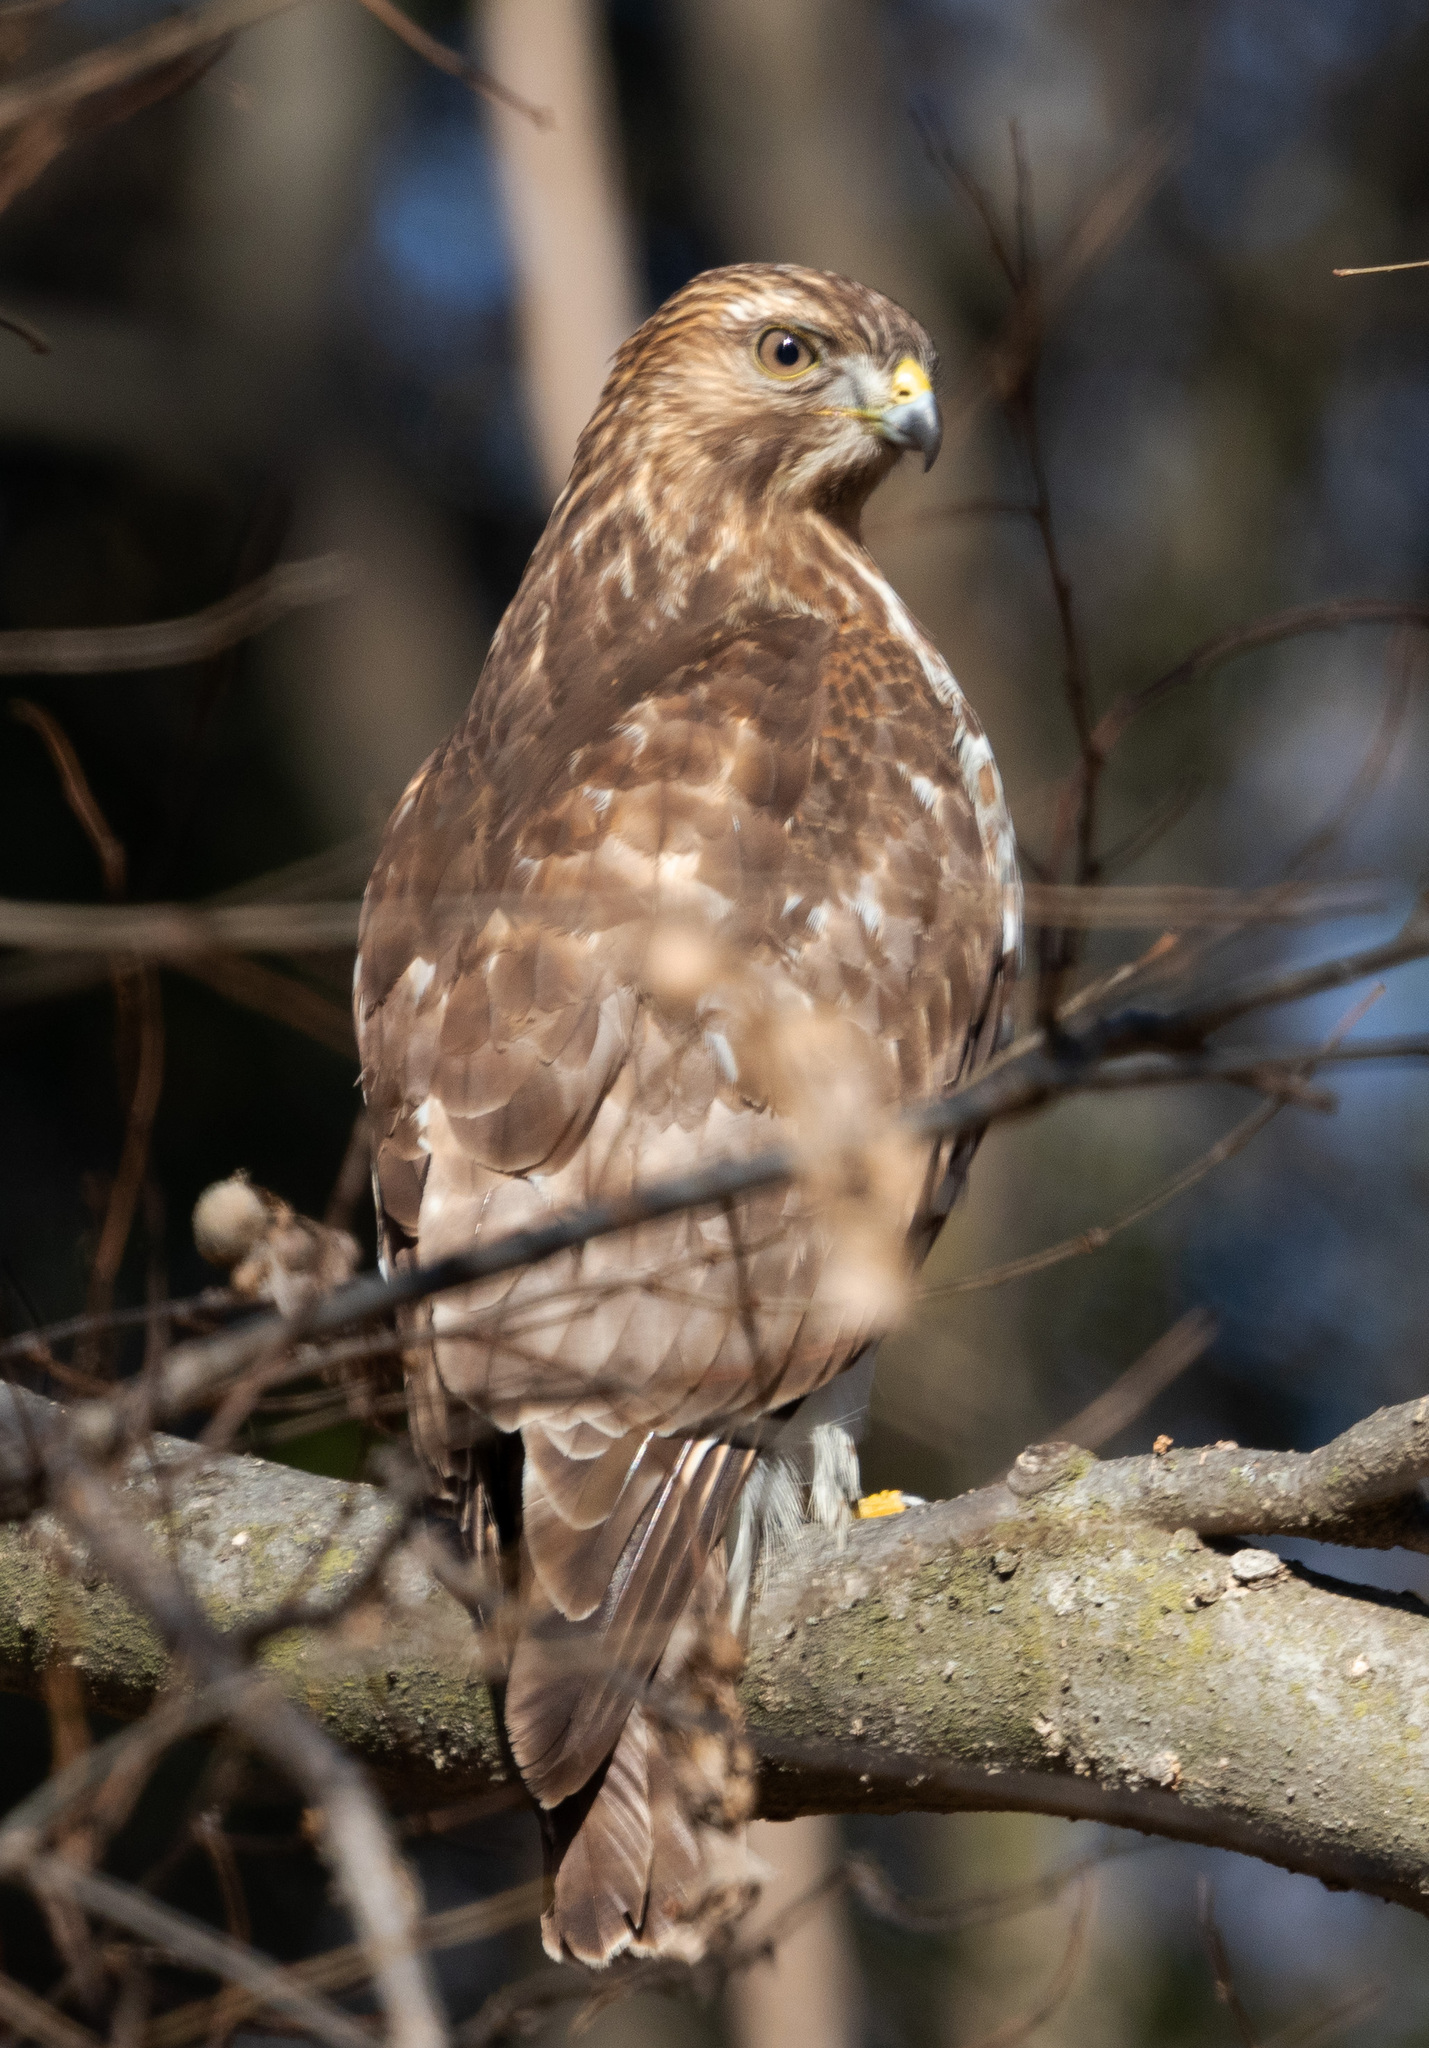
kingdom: Animalia
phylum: Chordata
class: Aves
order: Accipitriformes
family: Accipitridae
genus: Buteo
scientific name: Buteo jamaicensis
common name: Red-tailed hawk
